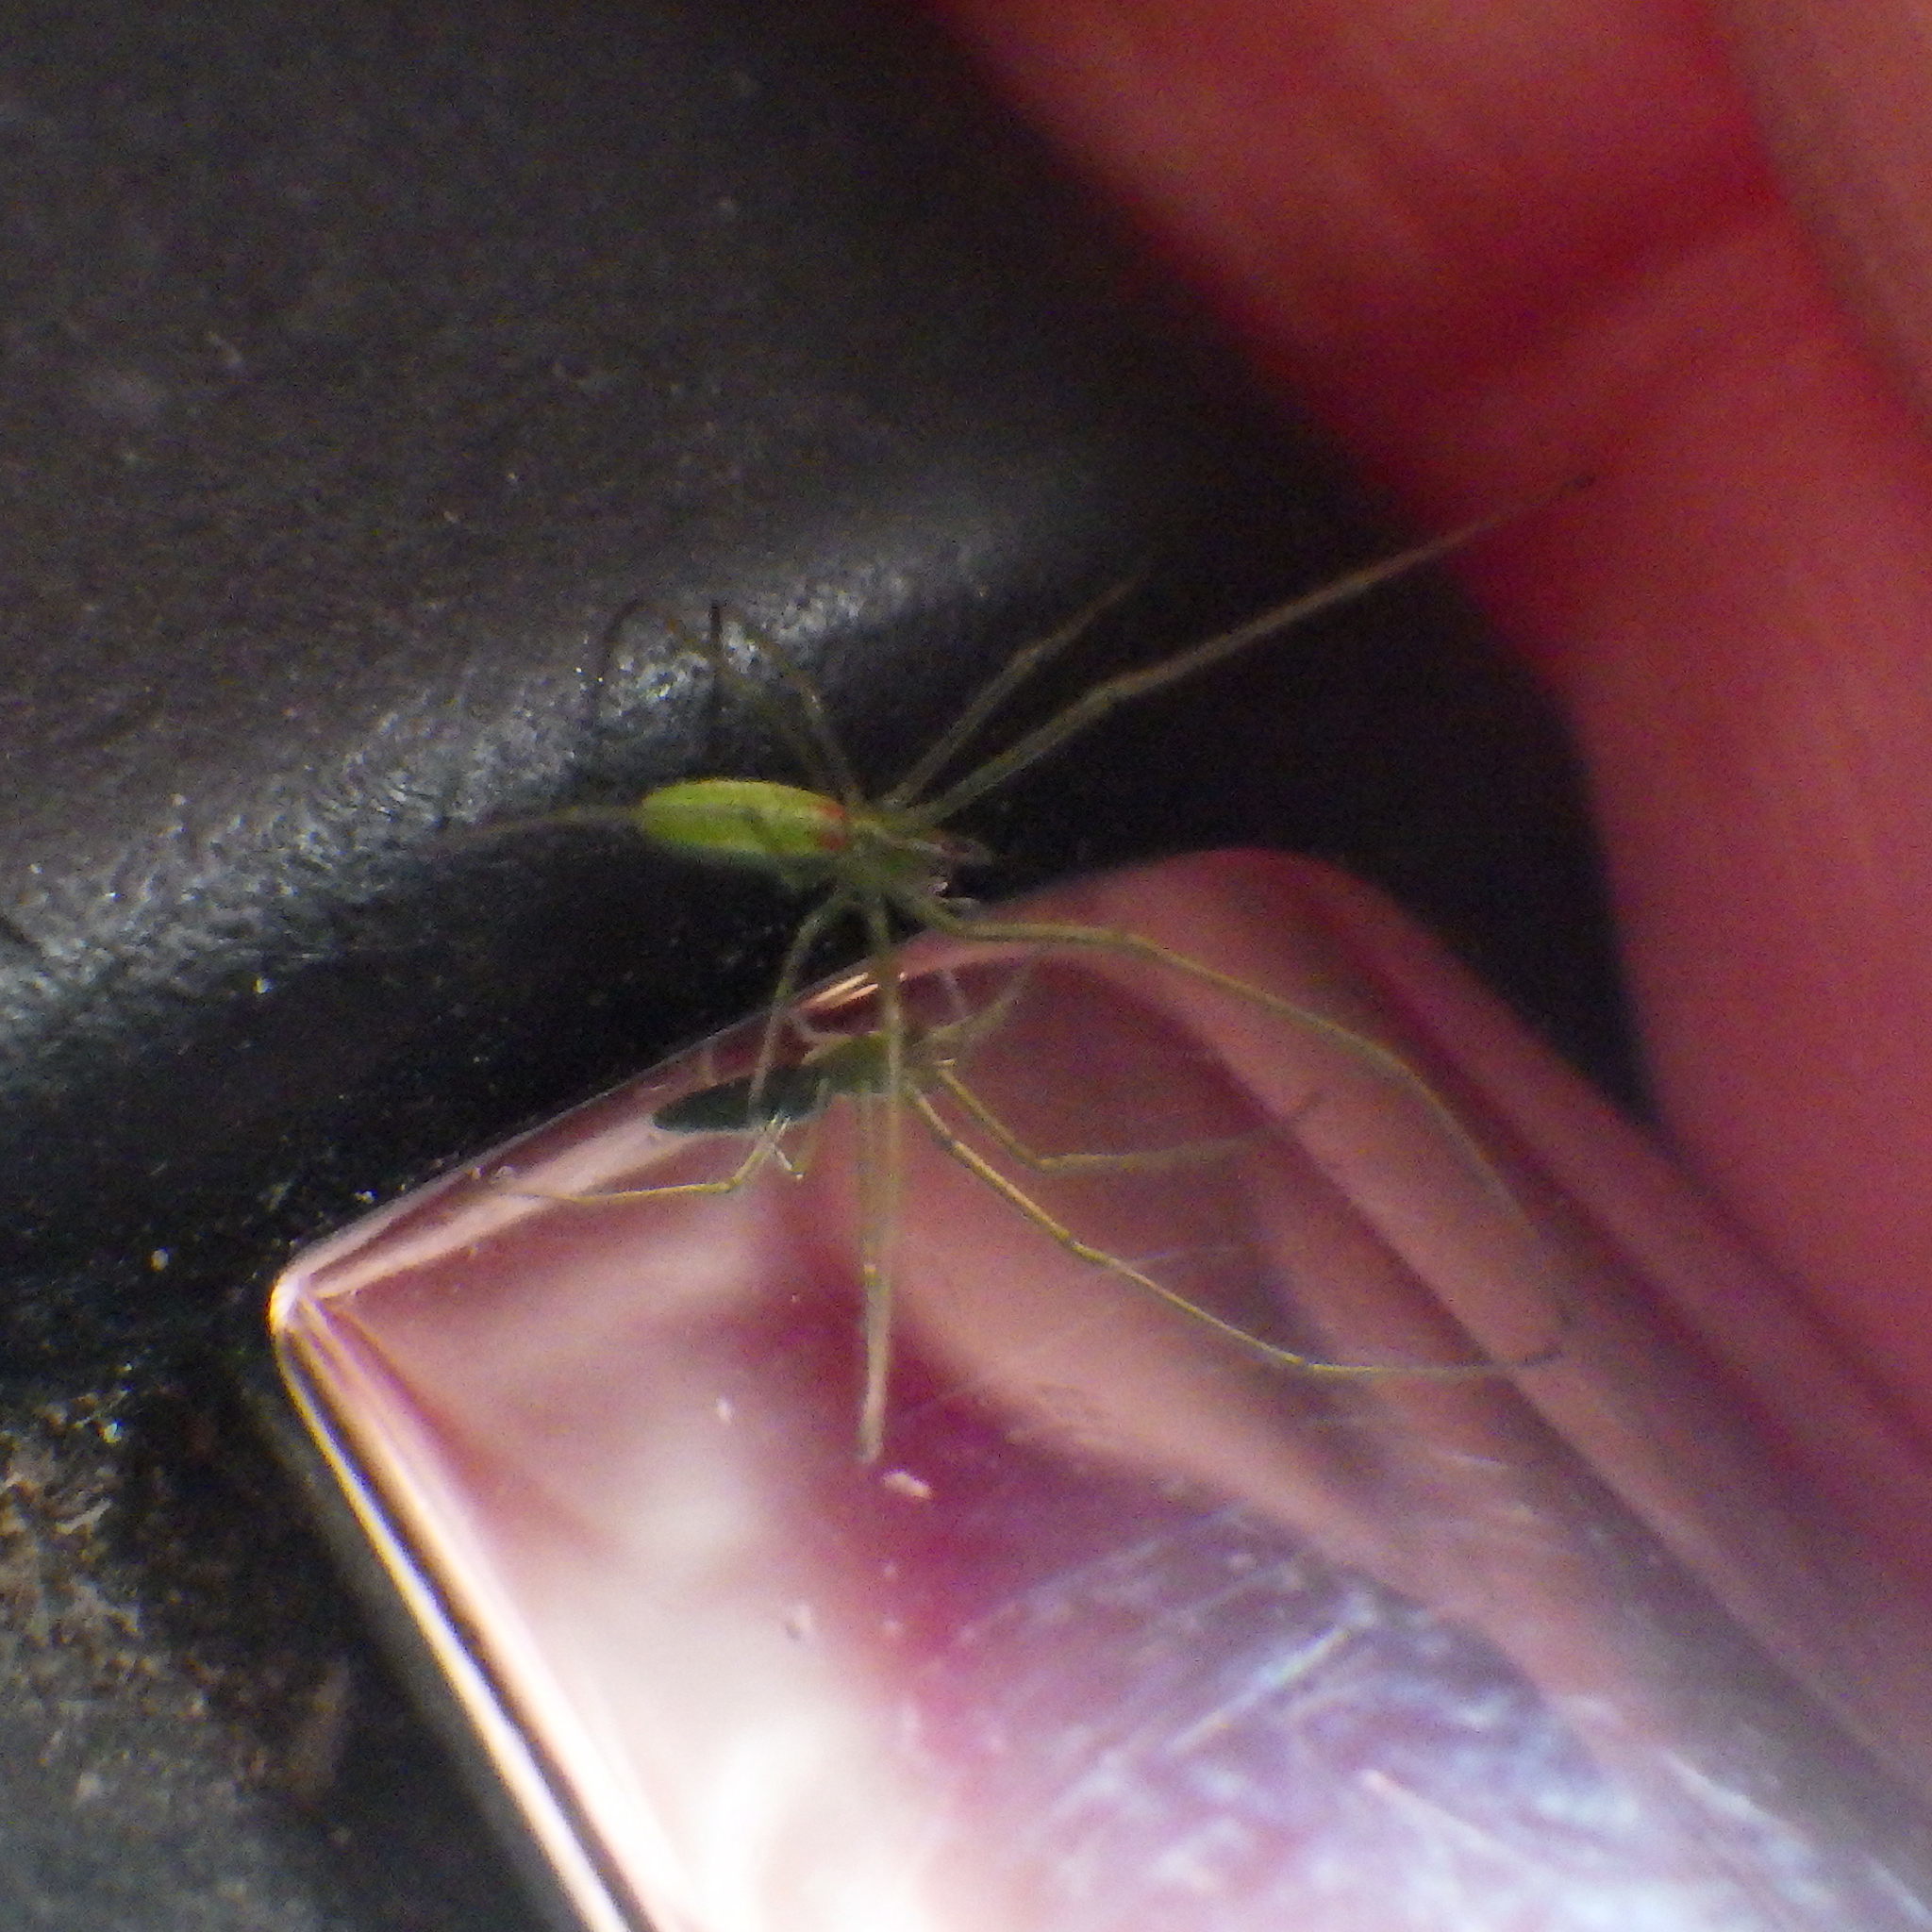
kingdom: Animalia
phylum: Arthropoda
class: Arachnida
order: Araneae
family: Tetragnathidae
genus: Tetragnatha
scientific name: Tetragnatha viridis
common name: Green long-jawed spider
